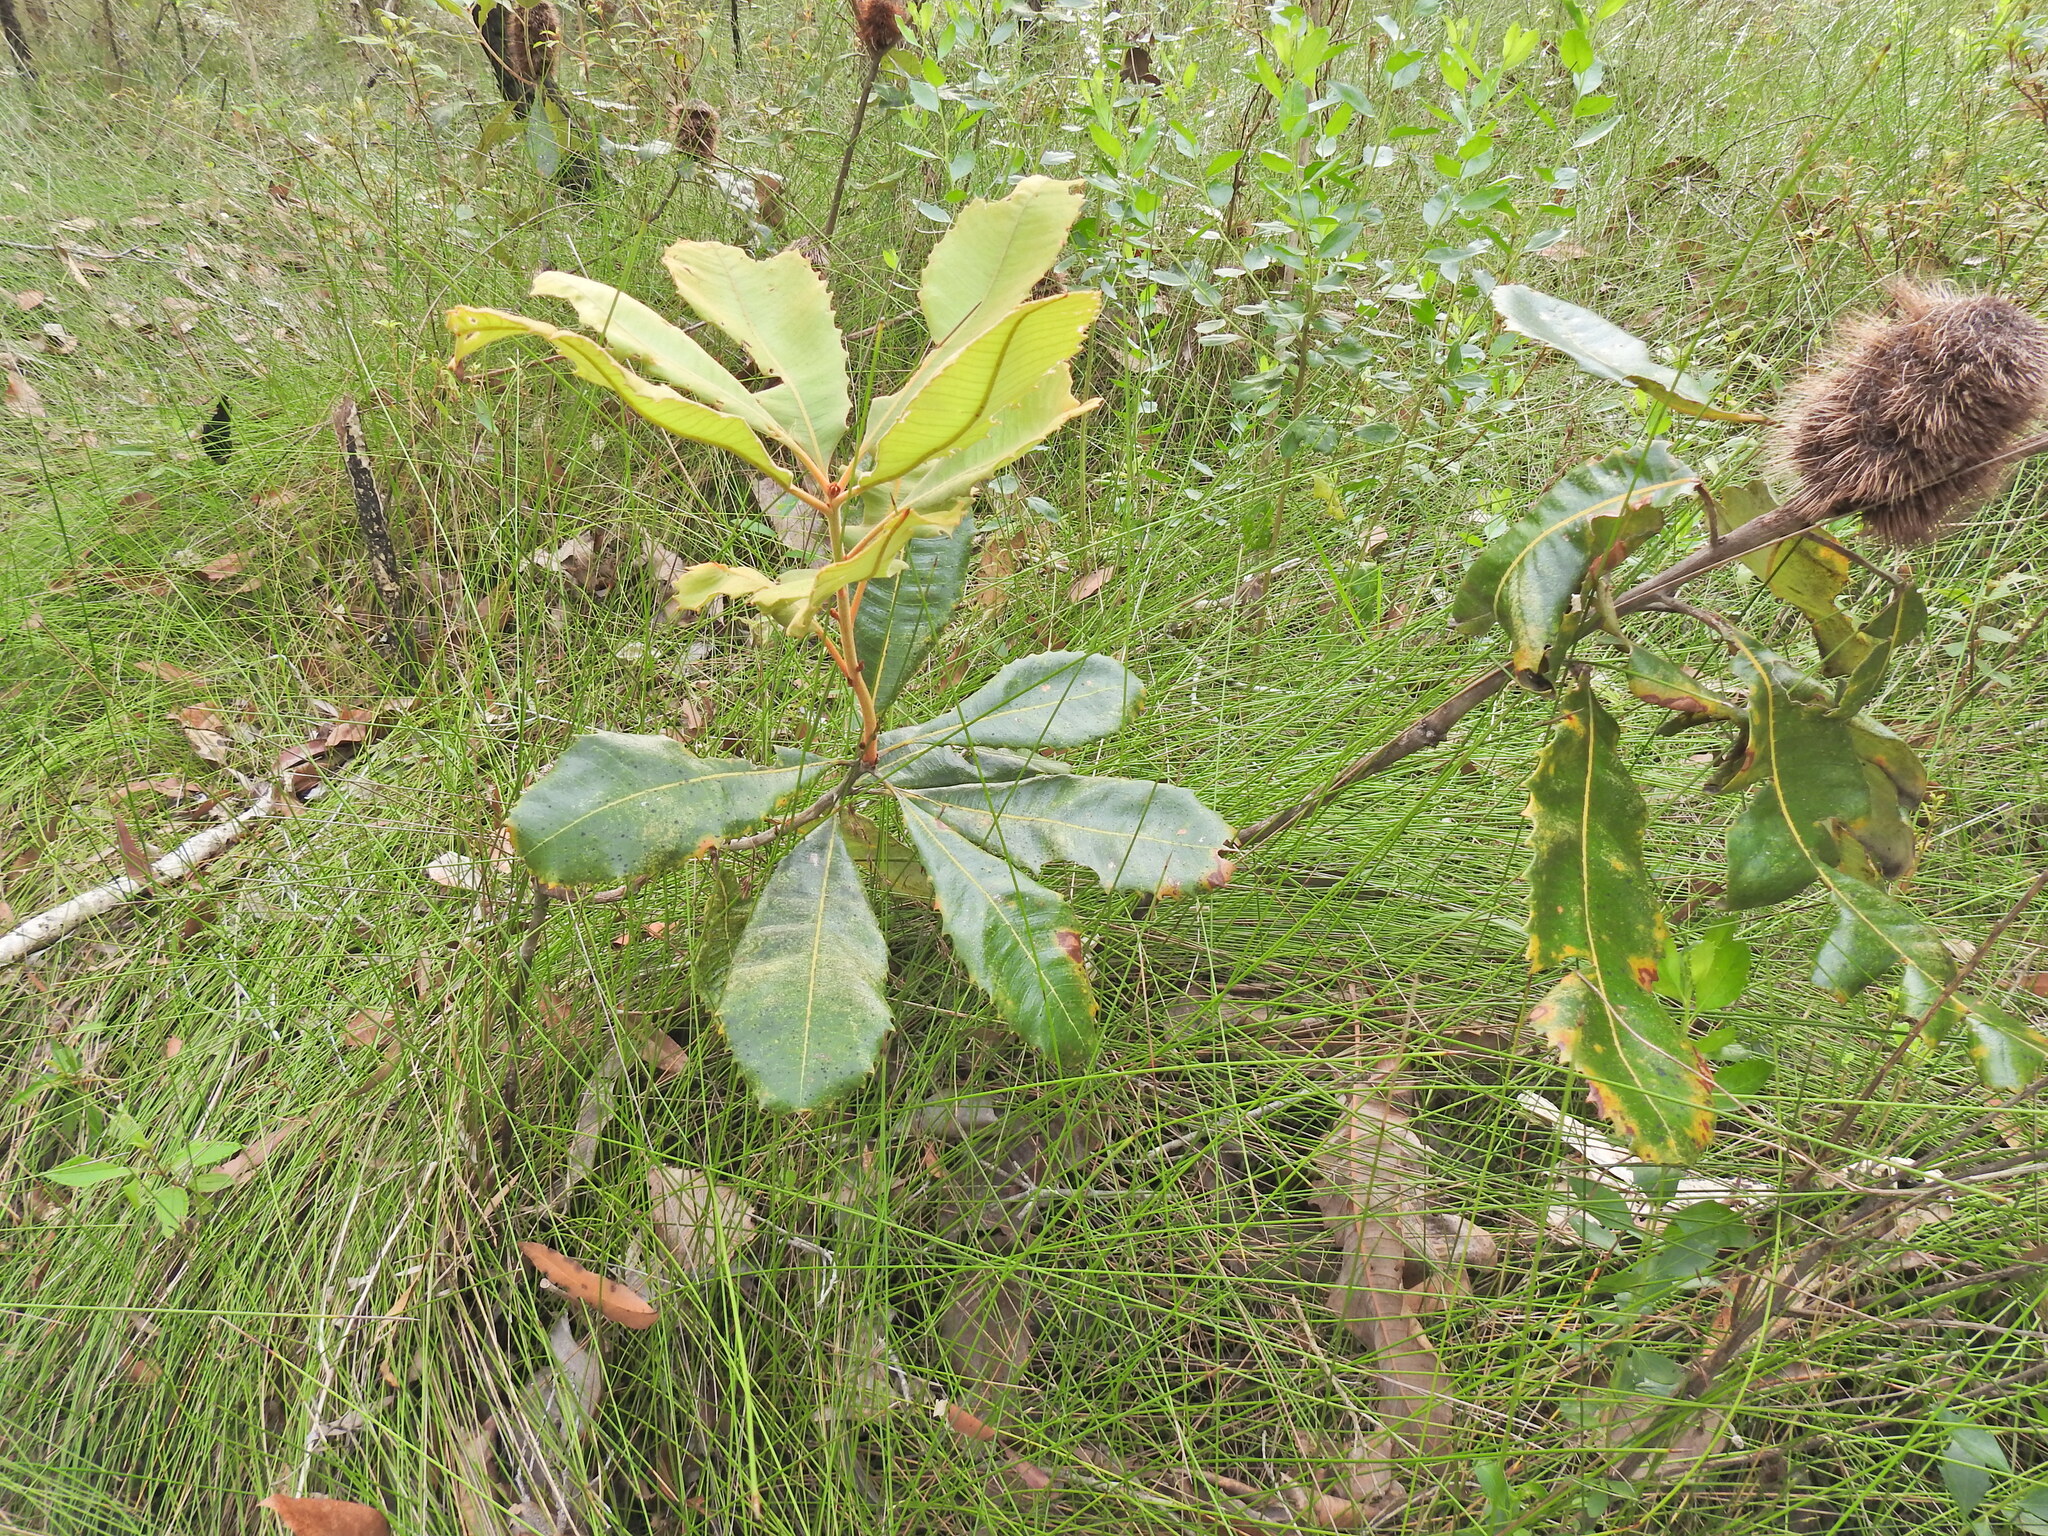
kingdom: Plantae
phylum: Tracheophyta
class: Magnoliopsida
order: Proteales
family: Proteaceae
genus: Banksia
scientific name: Banksia robur
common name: Broadleaf banksia
